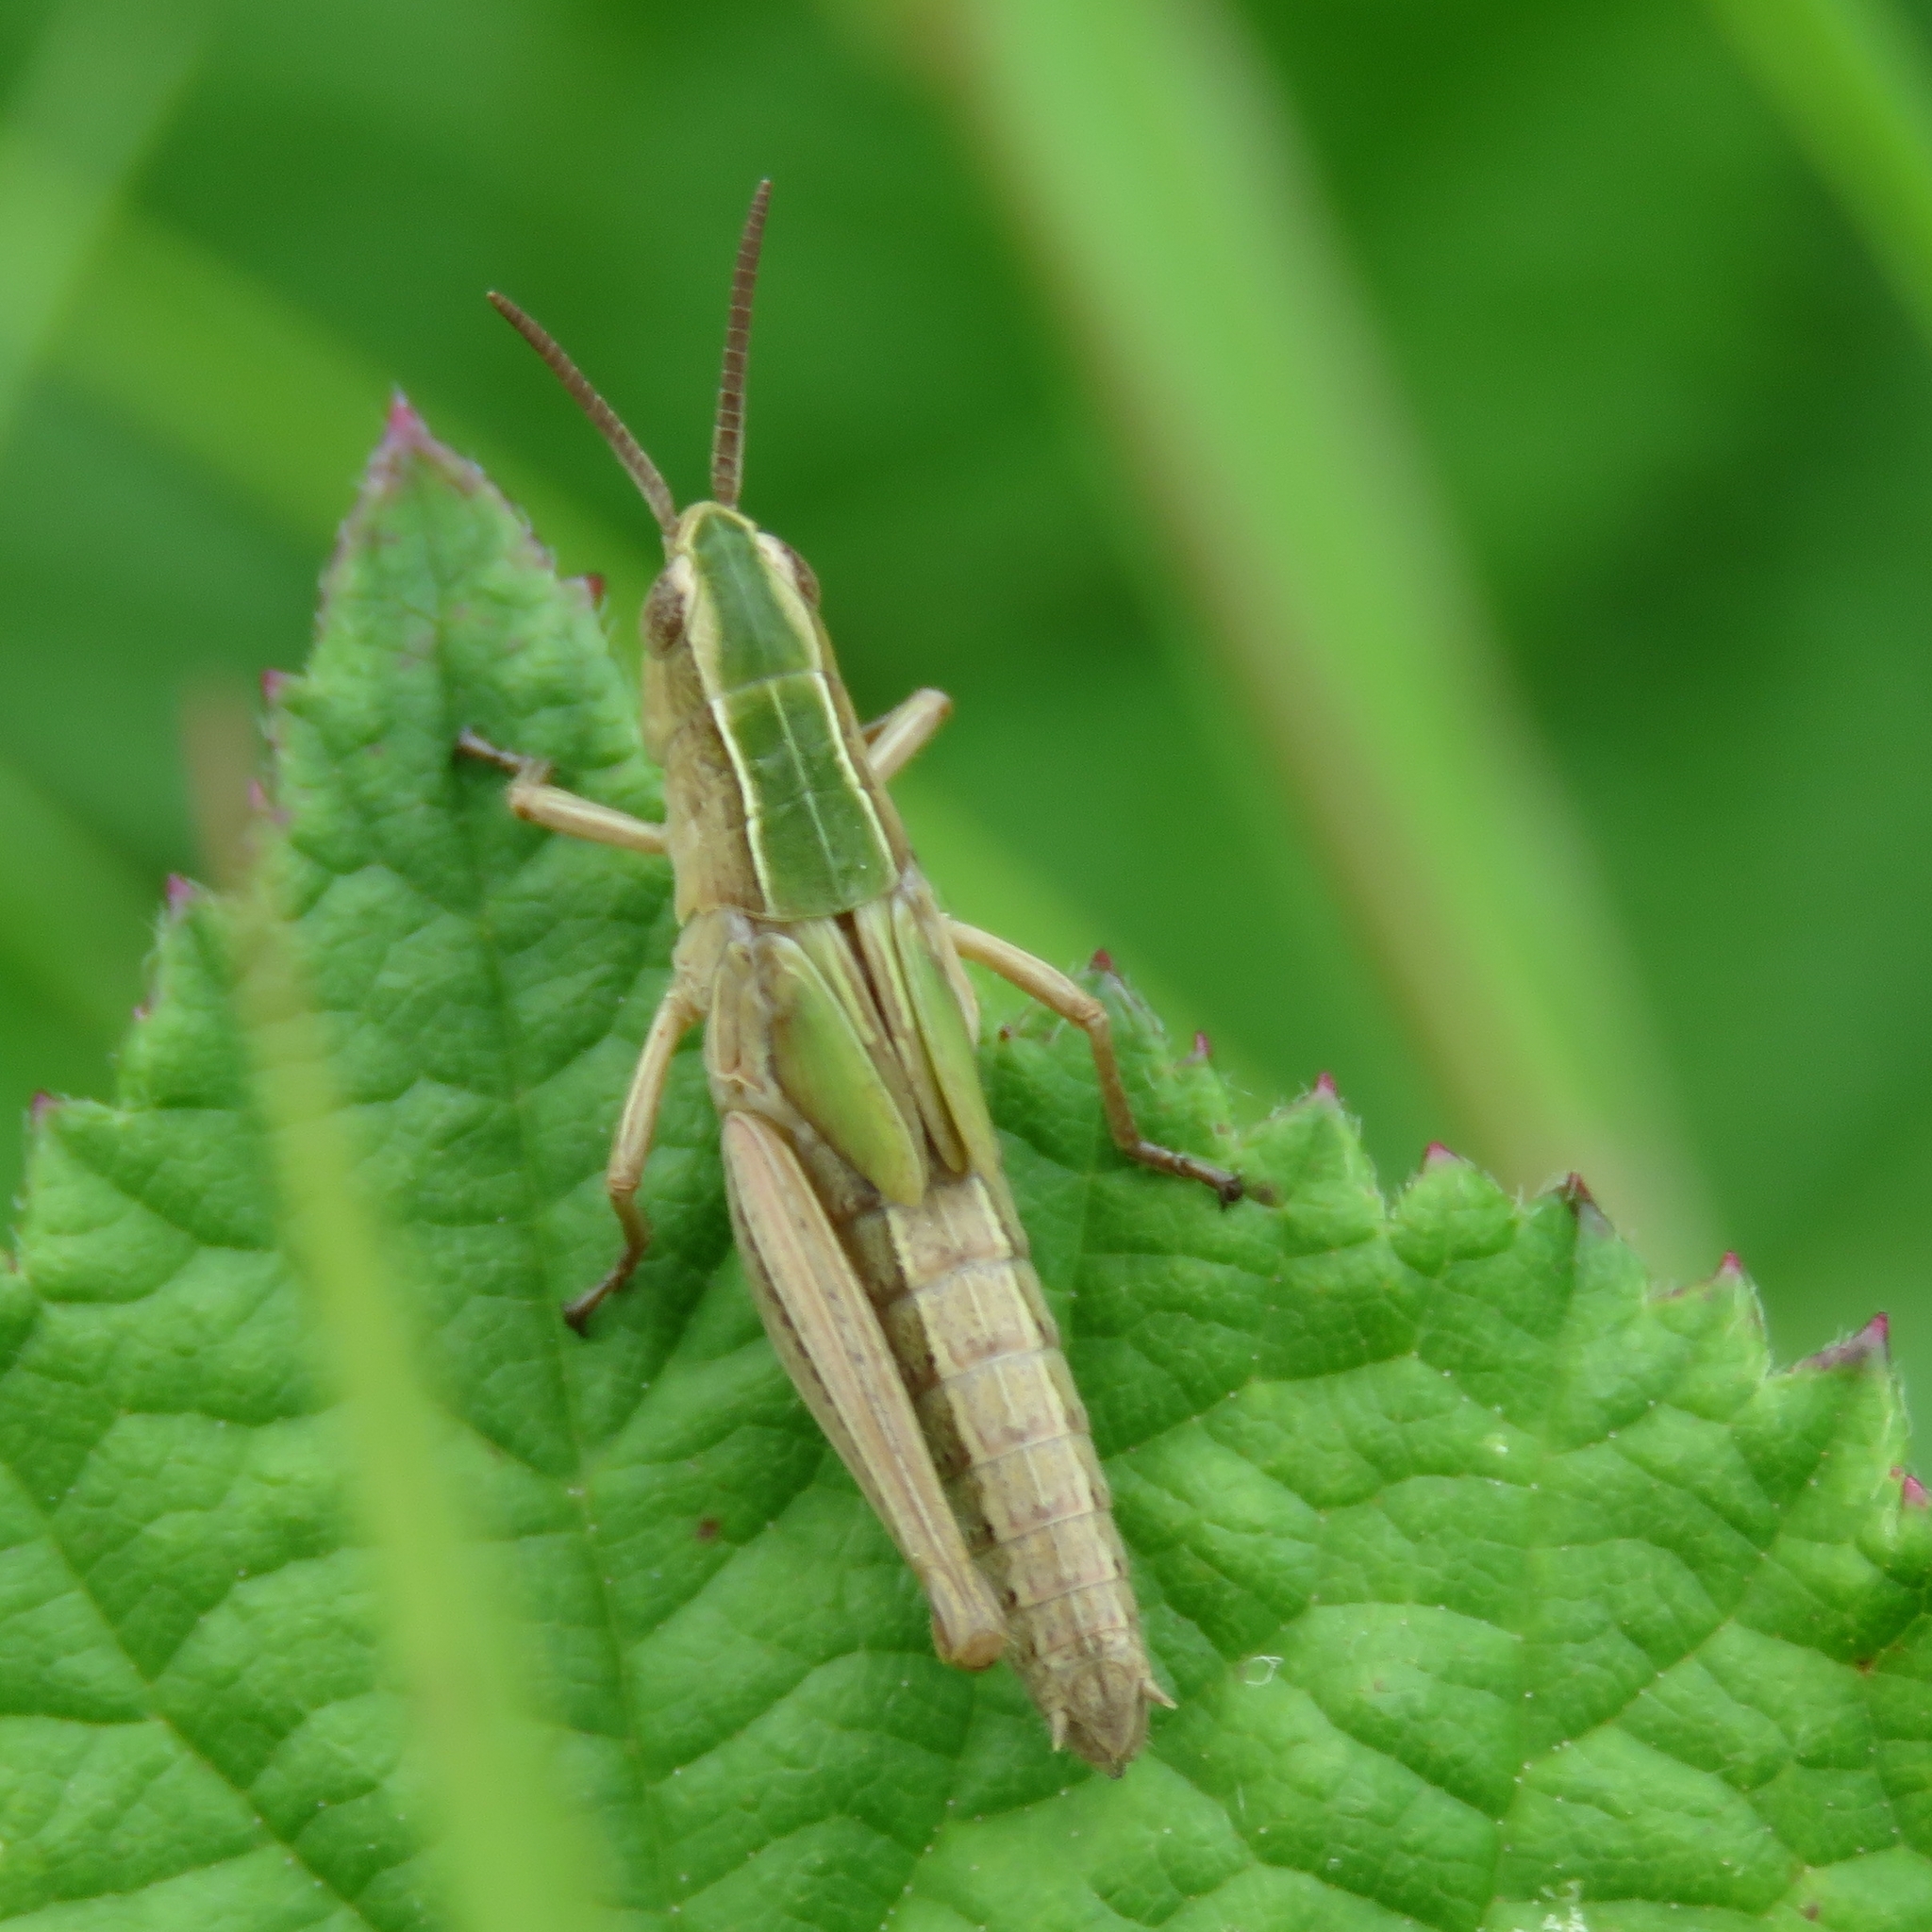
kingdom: Animalia
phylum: Arthropoda
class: Insecta
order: Orthoptera
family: Acrididae
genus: Chorthippus
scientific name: Chorthippus albomarginatus
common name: Lesser marsh grasshopper
